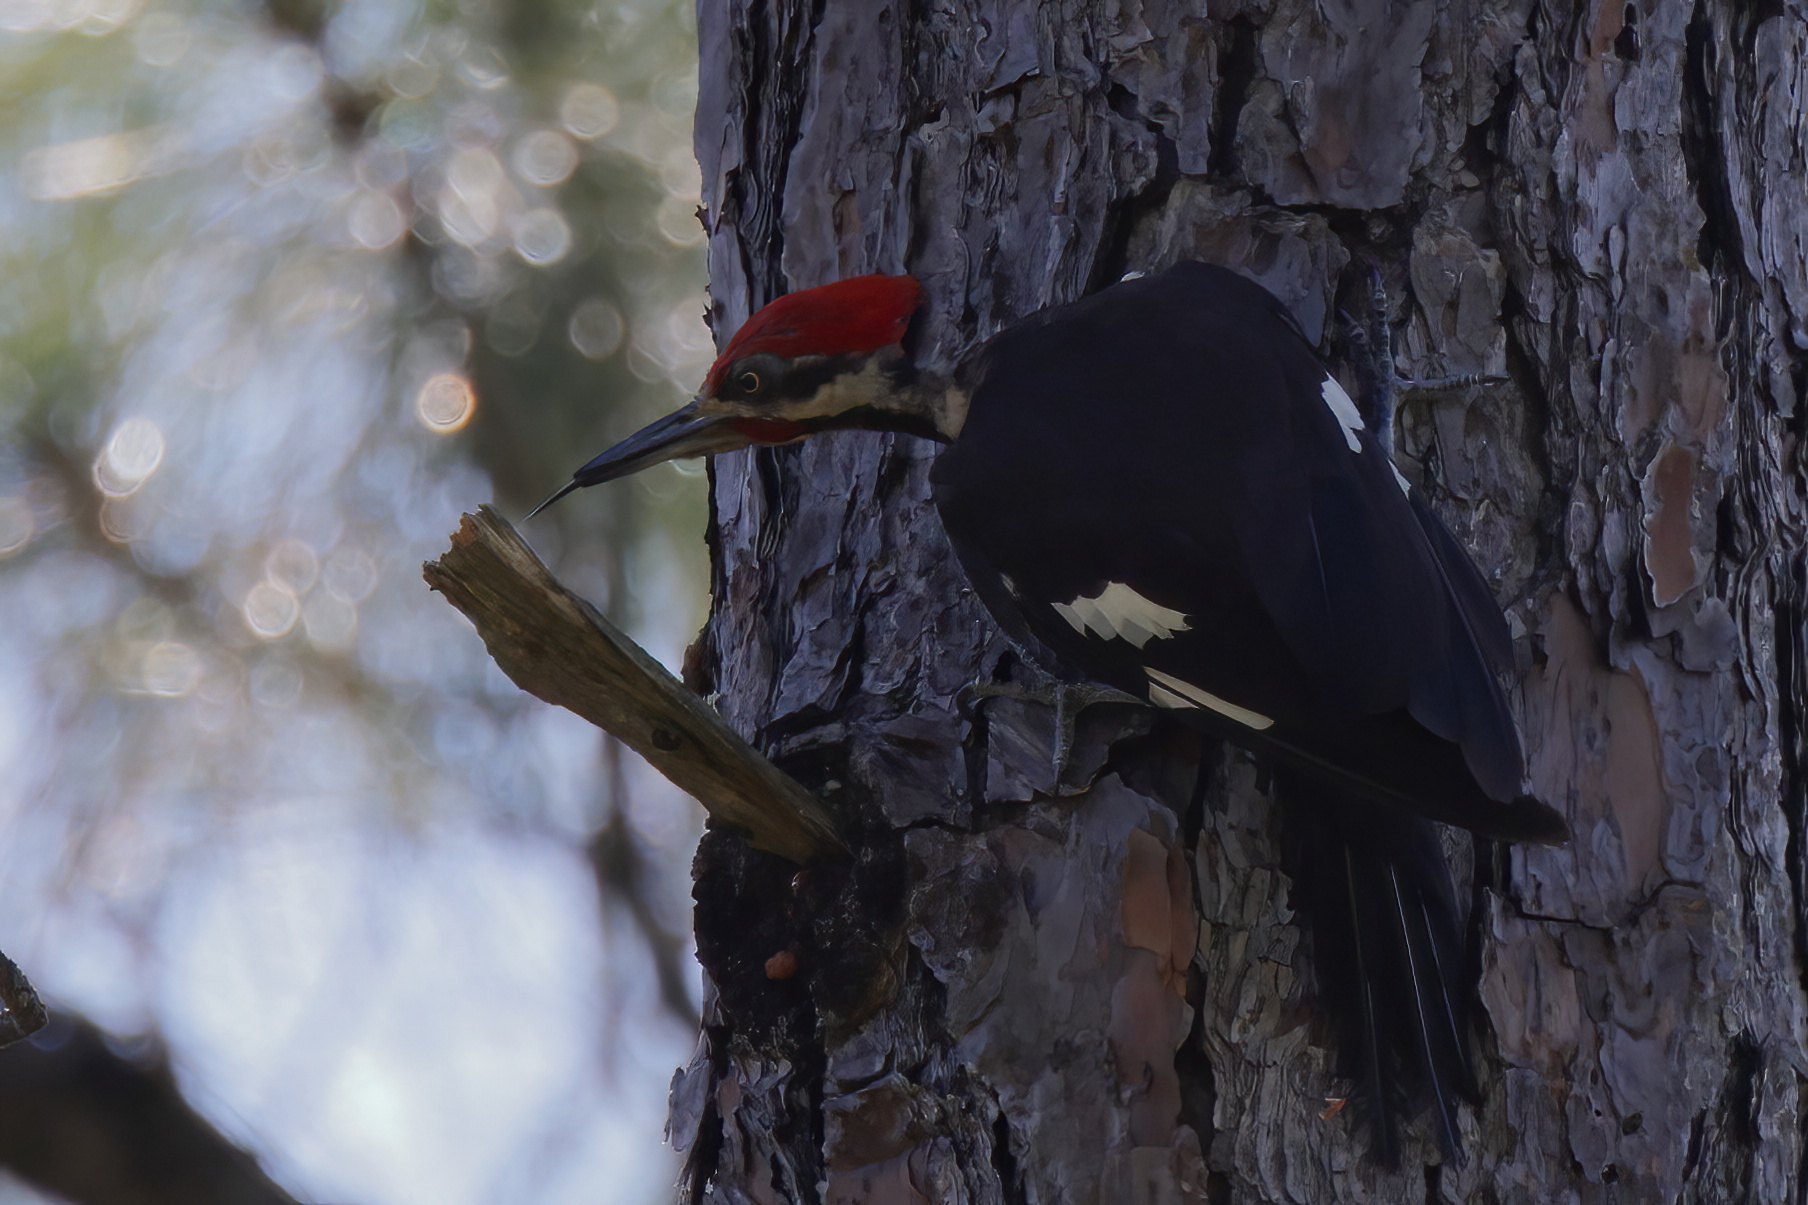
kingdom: Animalia
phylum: Chordata
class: Aves
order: Piciformes
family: Picidae
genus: Dryocopus
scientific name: Dryocopus pileatus
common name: Pileated woodpecker
